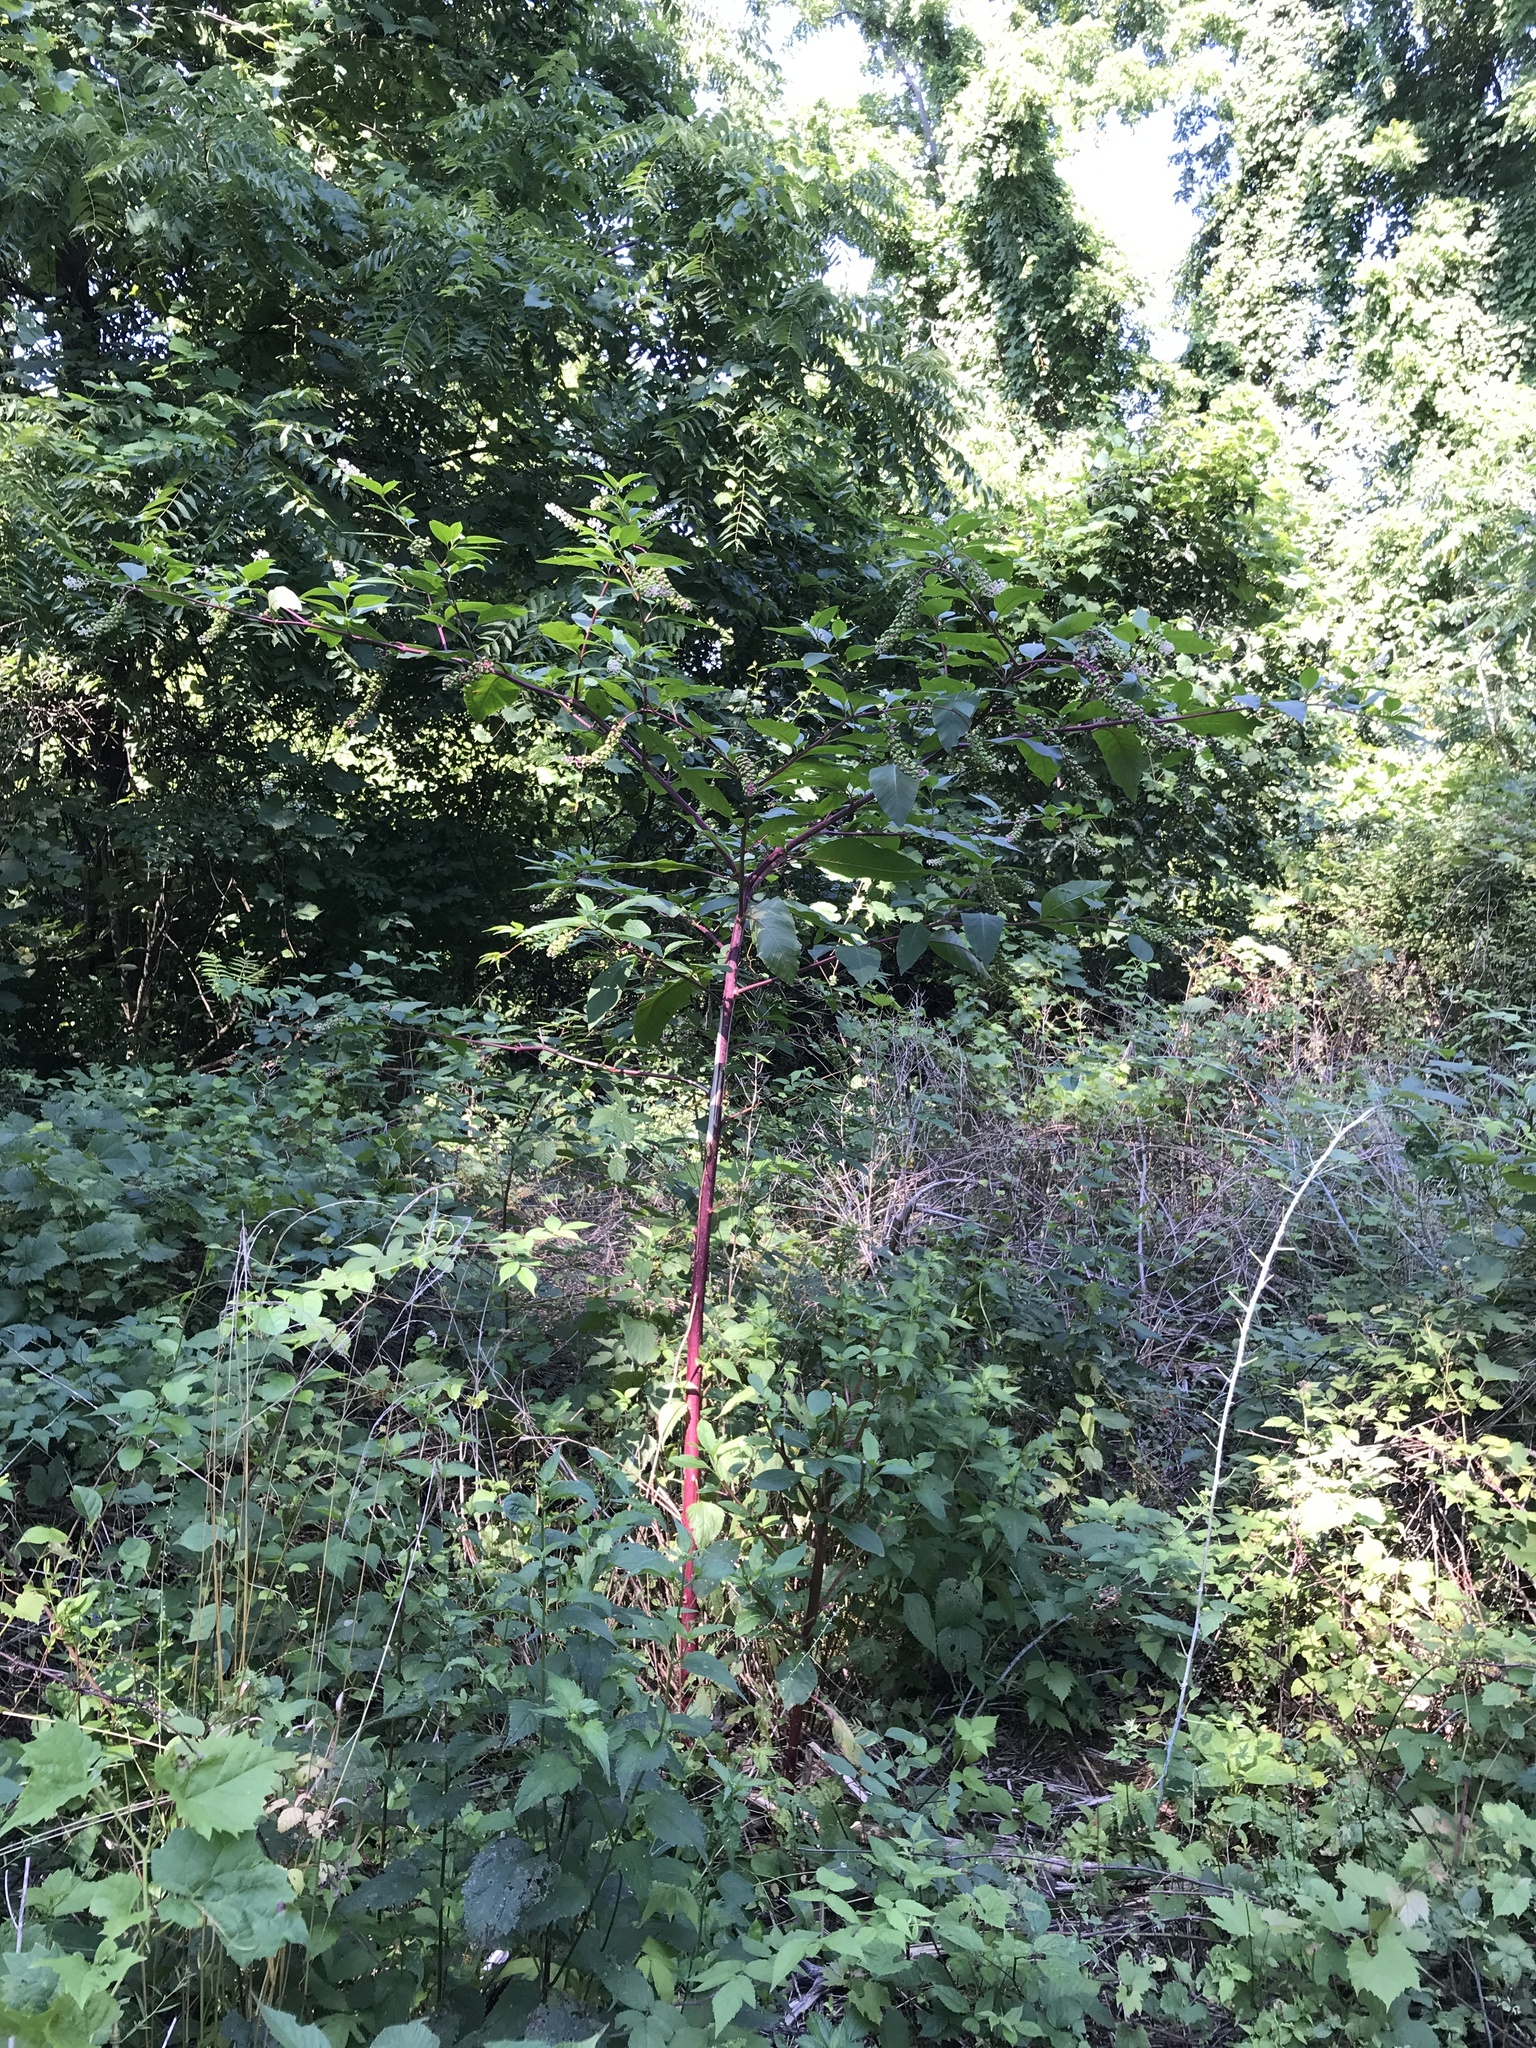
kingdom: Plantae
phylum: Tracheophyta
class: Magnoliopsida
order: Caryophyllales
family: Phytolaccaceae
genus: Phytolacca
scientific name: Phytolacca americana
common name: American pokeweed
